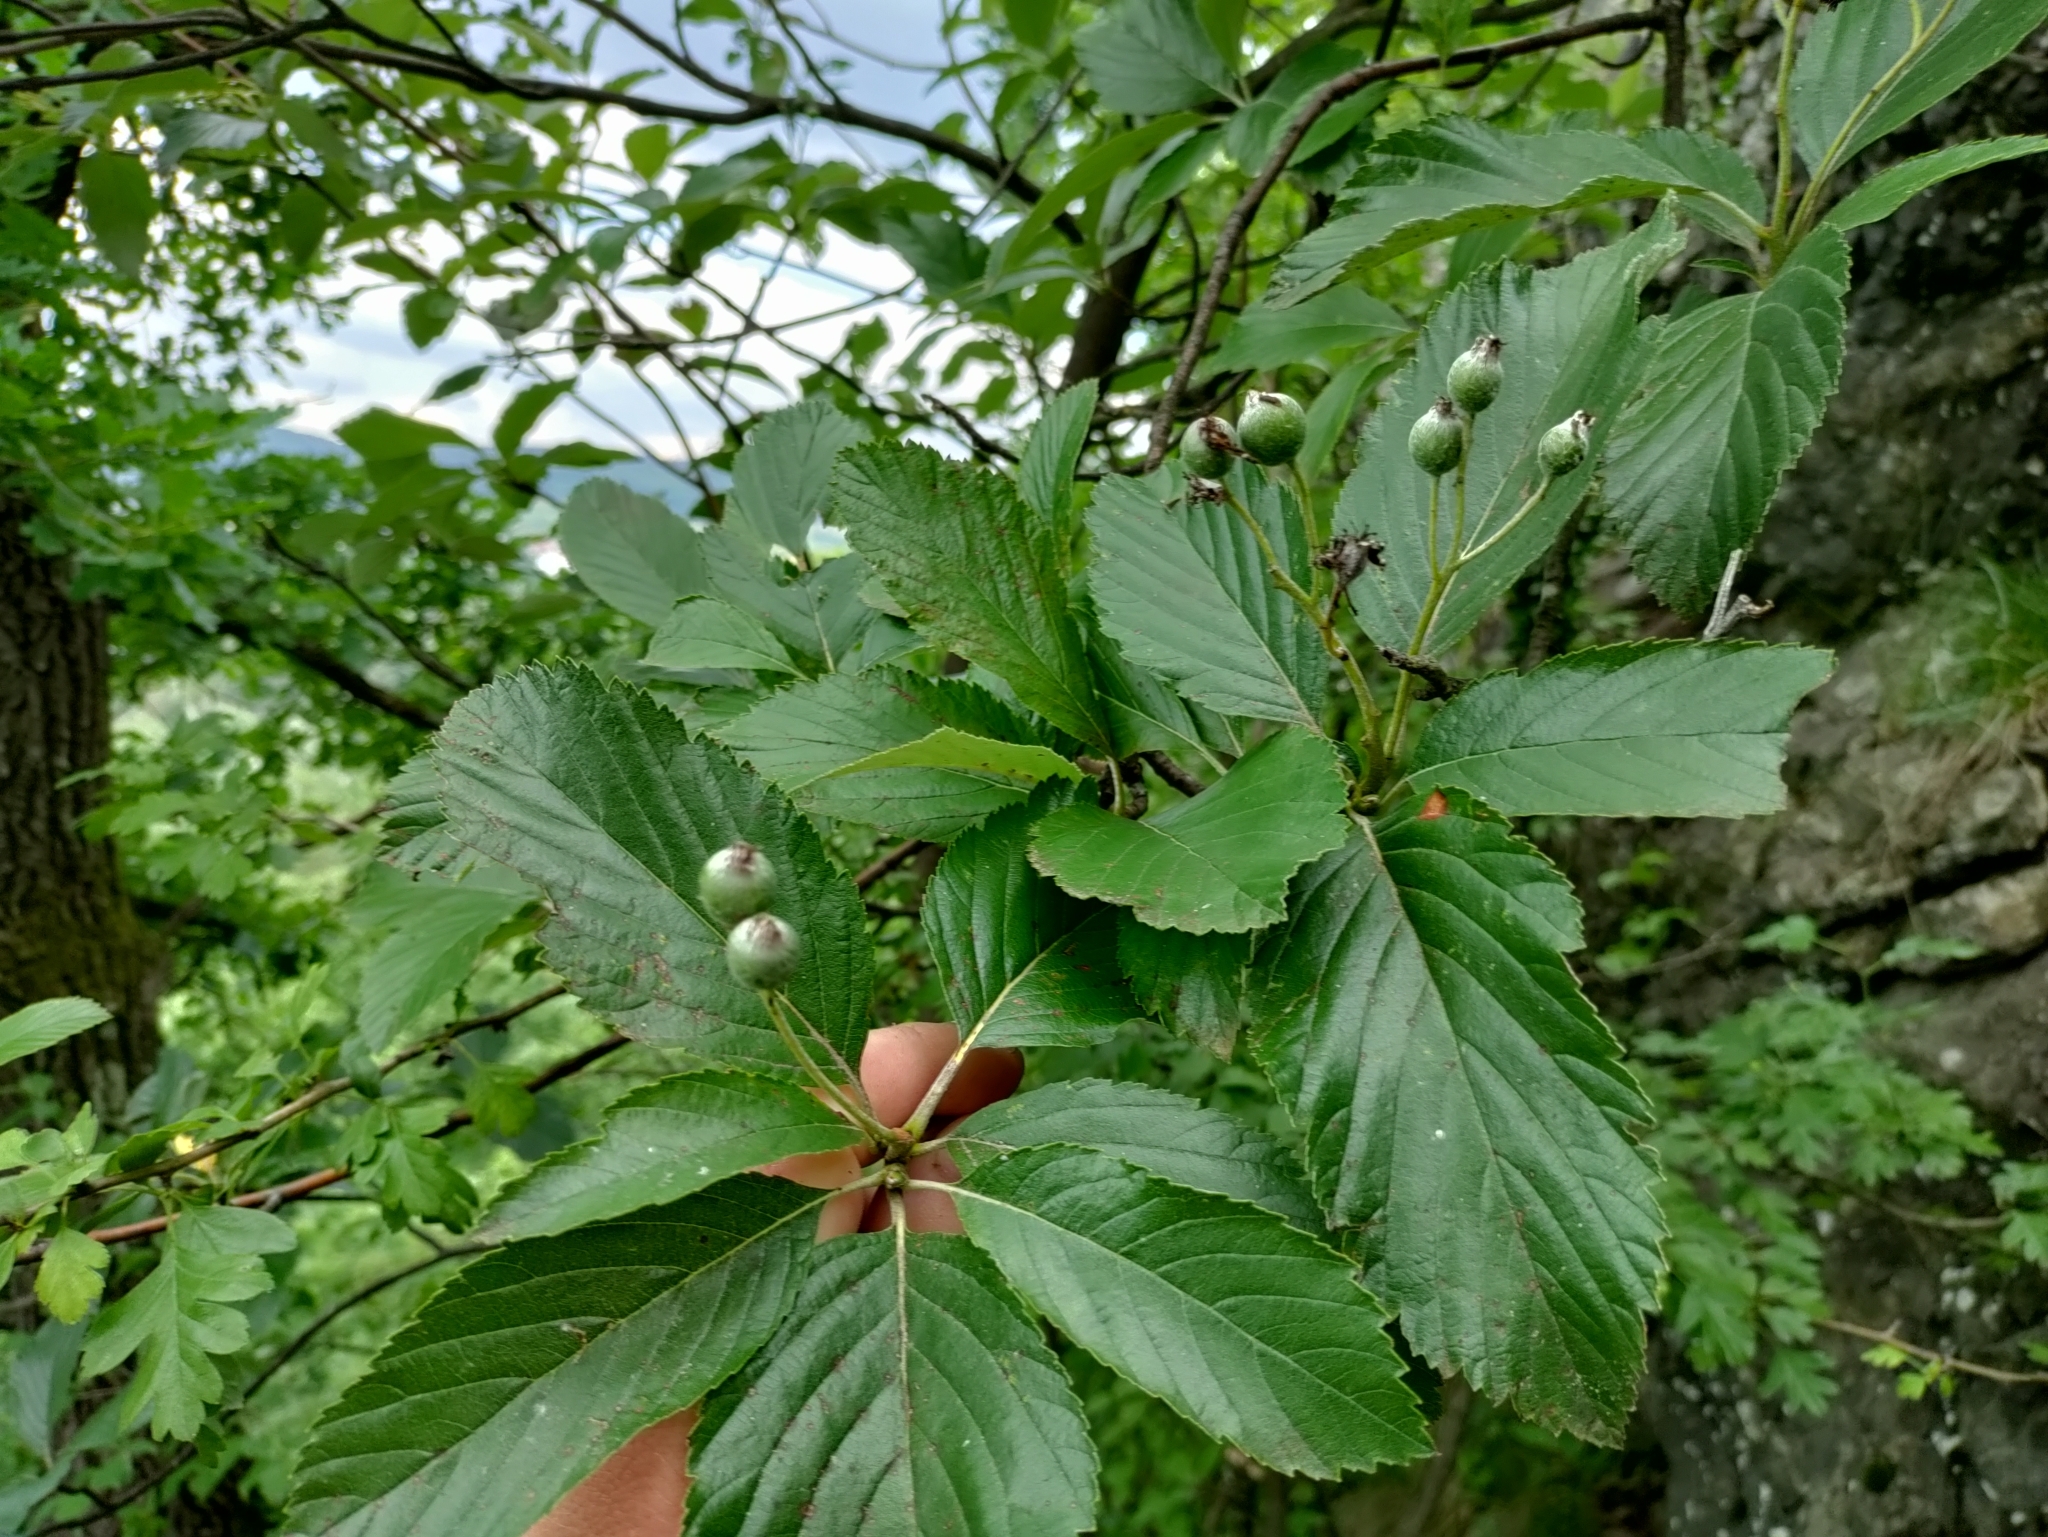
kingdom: Plantae
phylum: Tracheophyta
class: Magnoliopsida
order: Rosales
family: Rosaceae
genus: Aria
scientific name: Aria edulis
